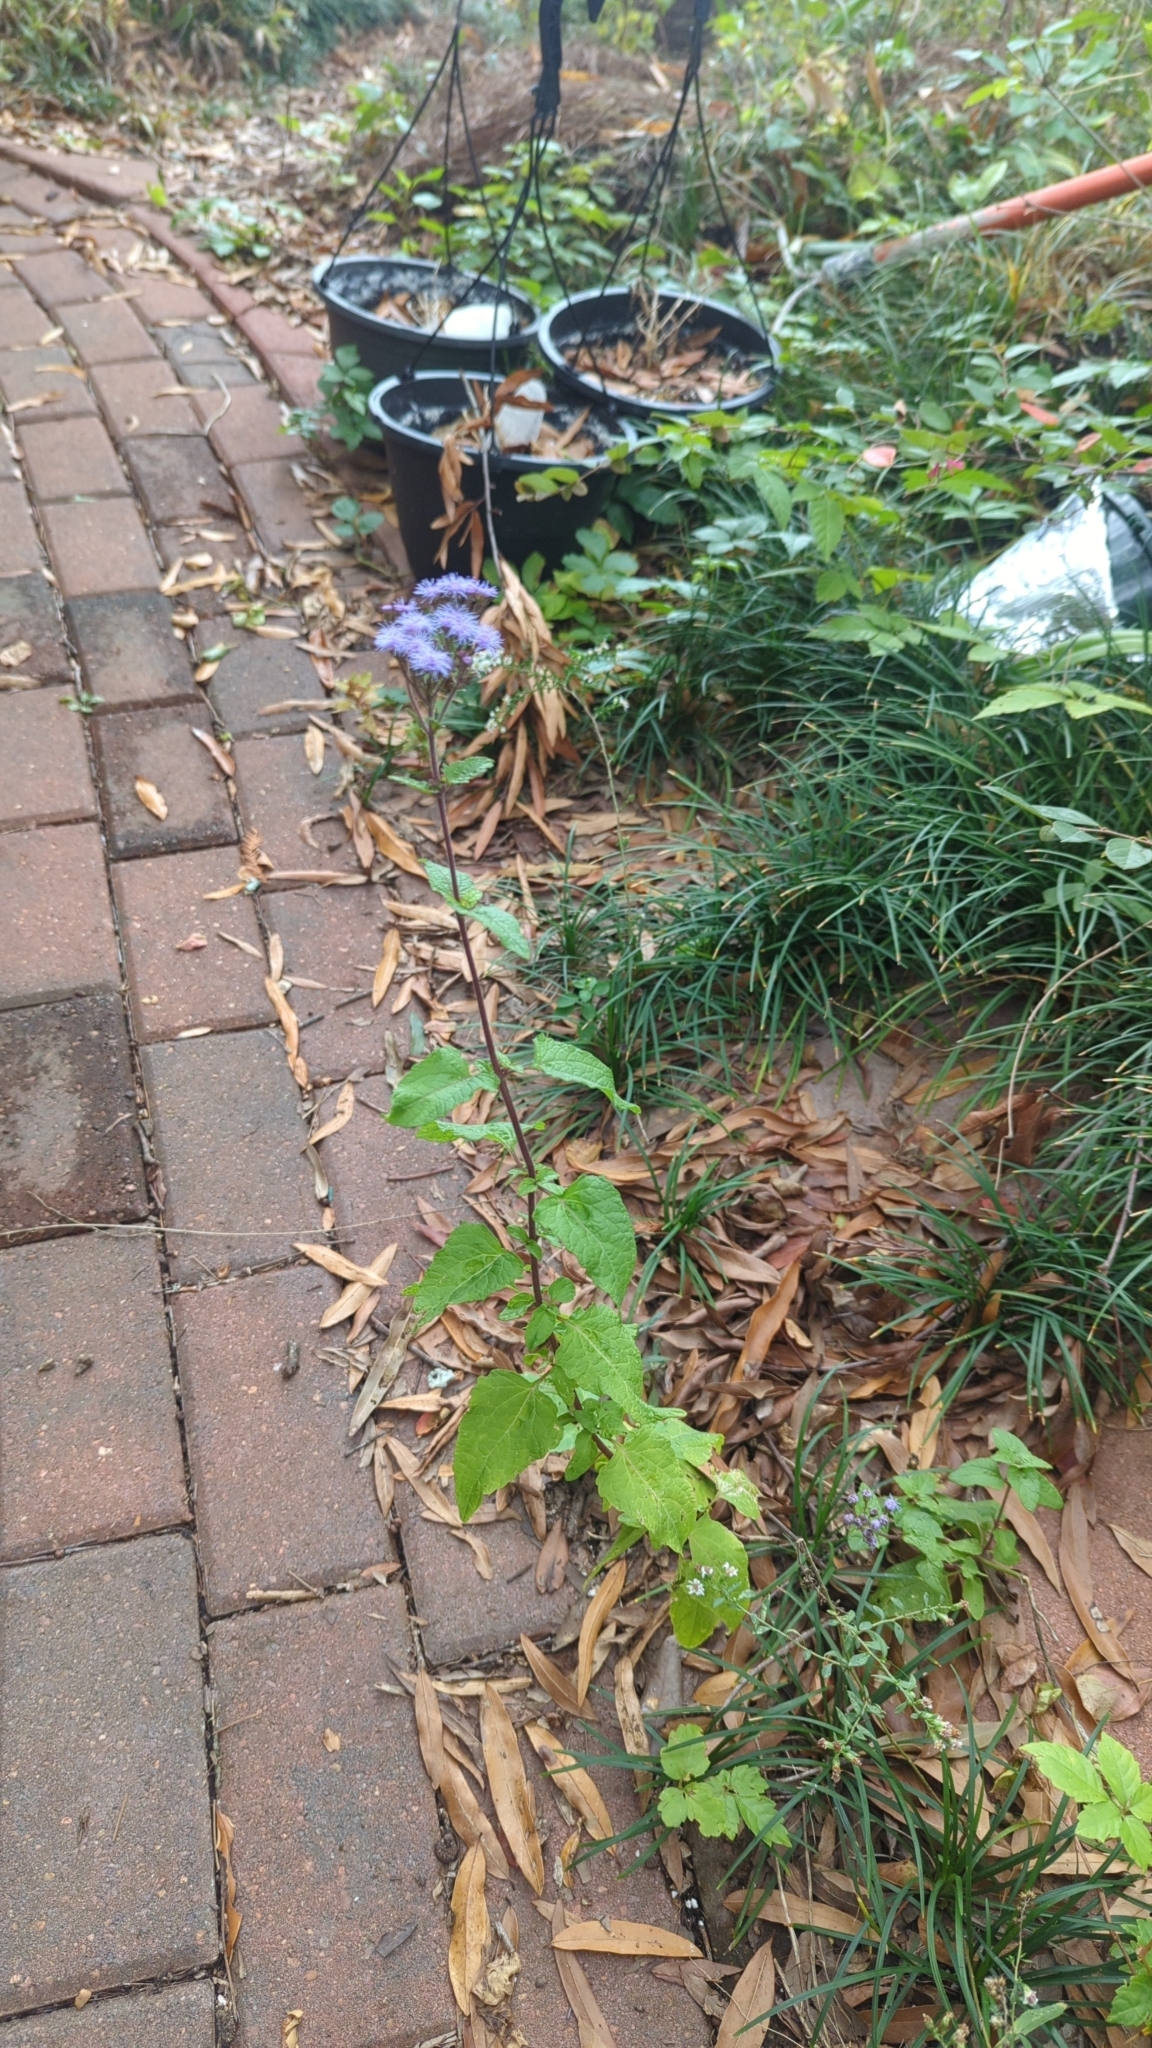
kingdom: Plantae
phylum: Tracheophyta
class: Magnoliopsida
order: Asterales
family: Asteraceae
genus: Conoclinium
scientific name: Conoclinium coelestinum
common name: Blue mistflower
